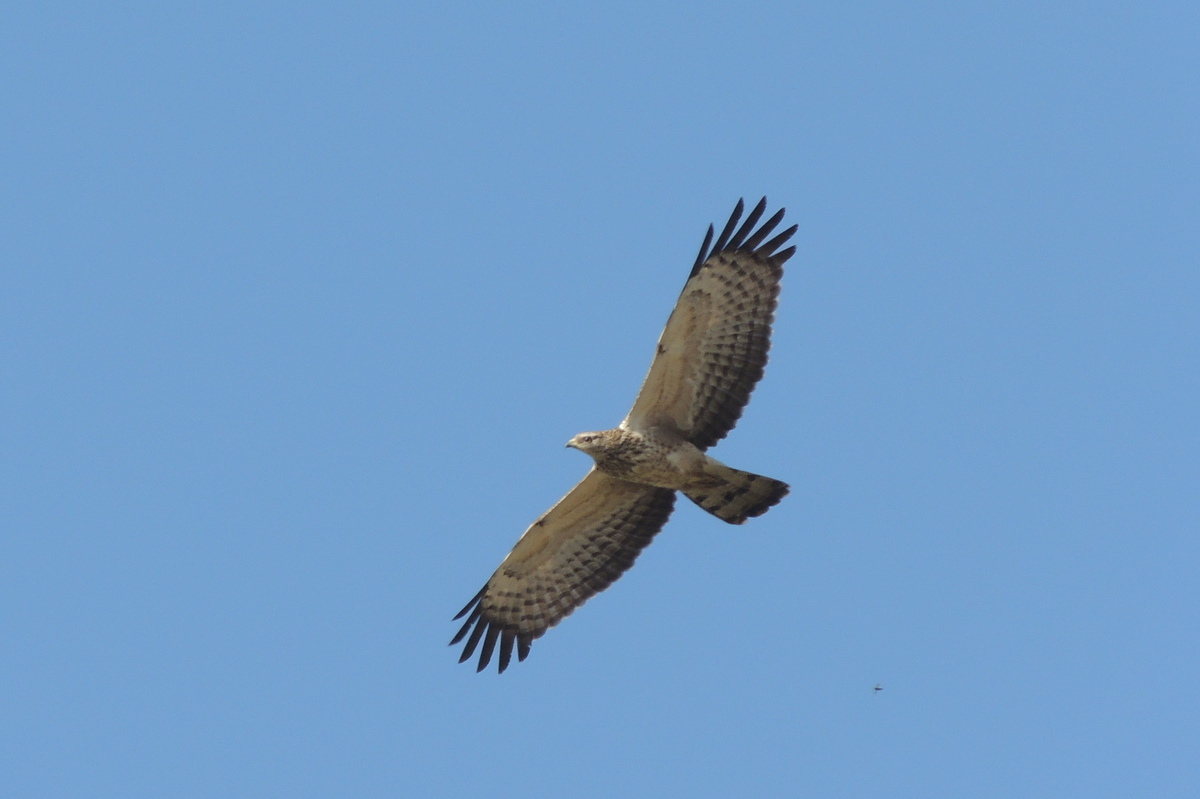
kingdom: Animalia
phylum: Chordata
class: Aves
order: Accipitriformes
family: Accipitridae
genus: Pernis
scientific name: Pernis ptilorhynchus
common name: Crested honey buzzard
